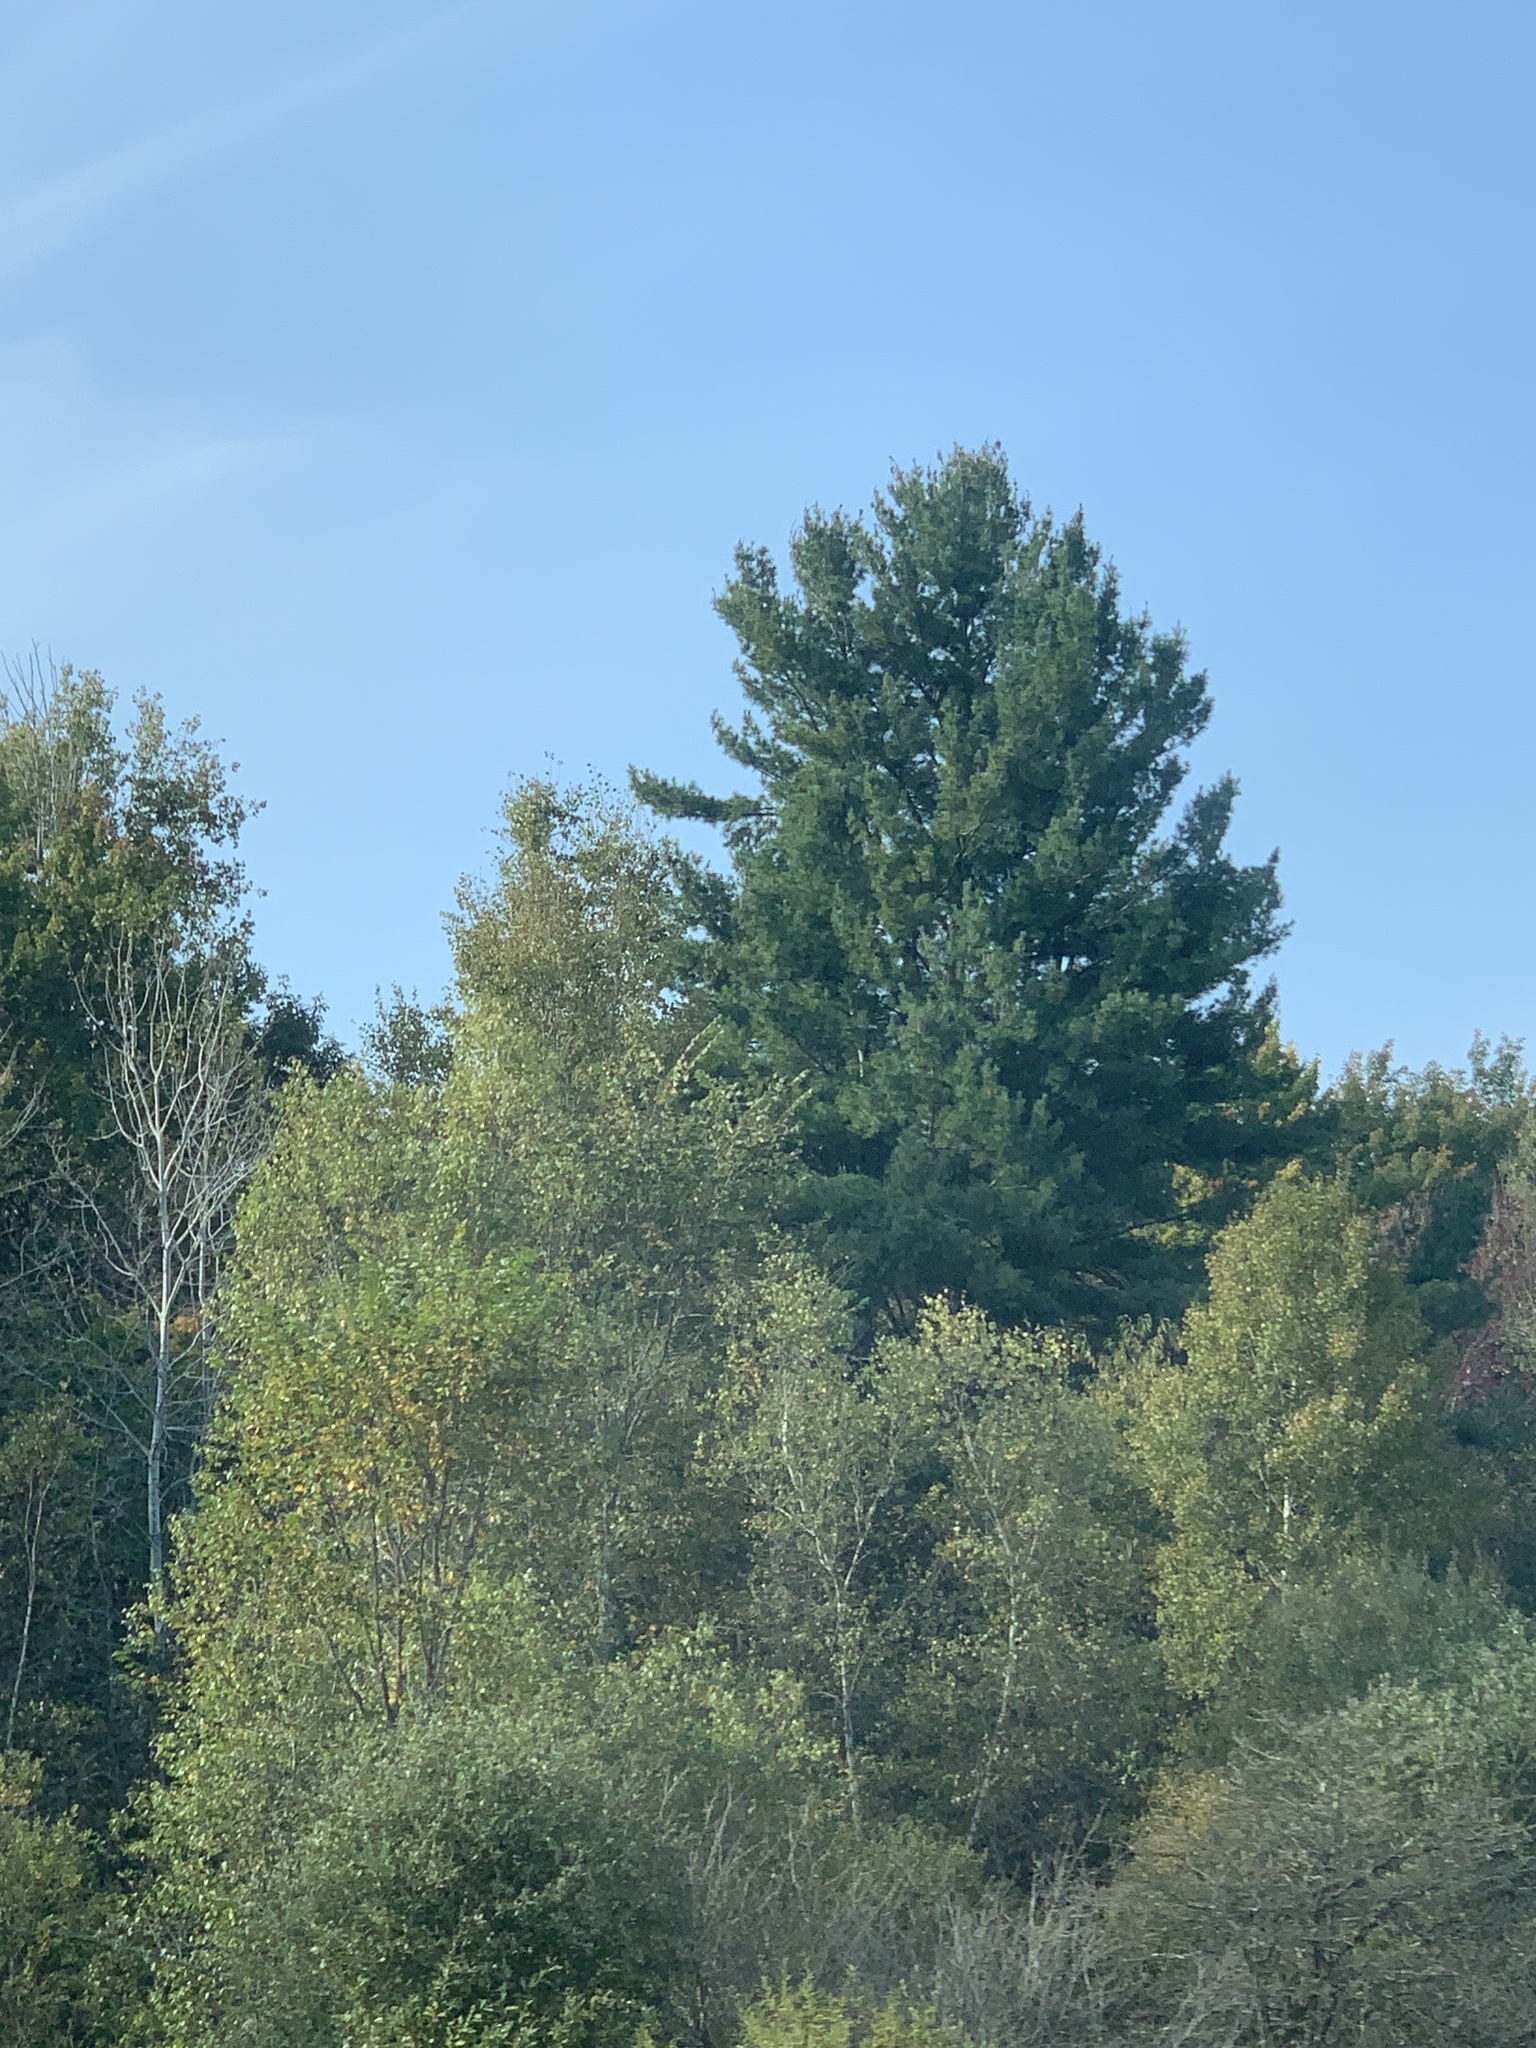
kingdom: Plantae
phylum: Tracheophyta
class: Pinopsida
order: Pinales
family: Pinaceae
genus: Pinus
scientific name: Pinus strobus
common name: Weymouth pine
